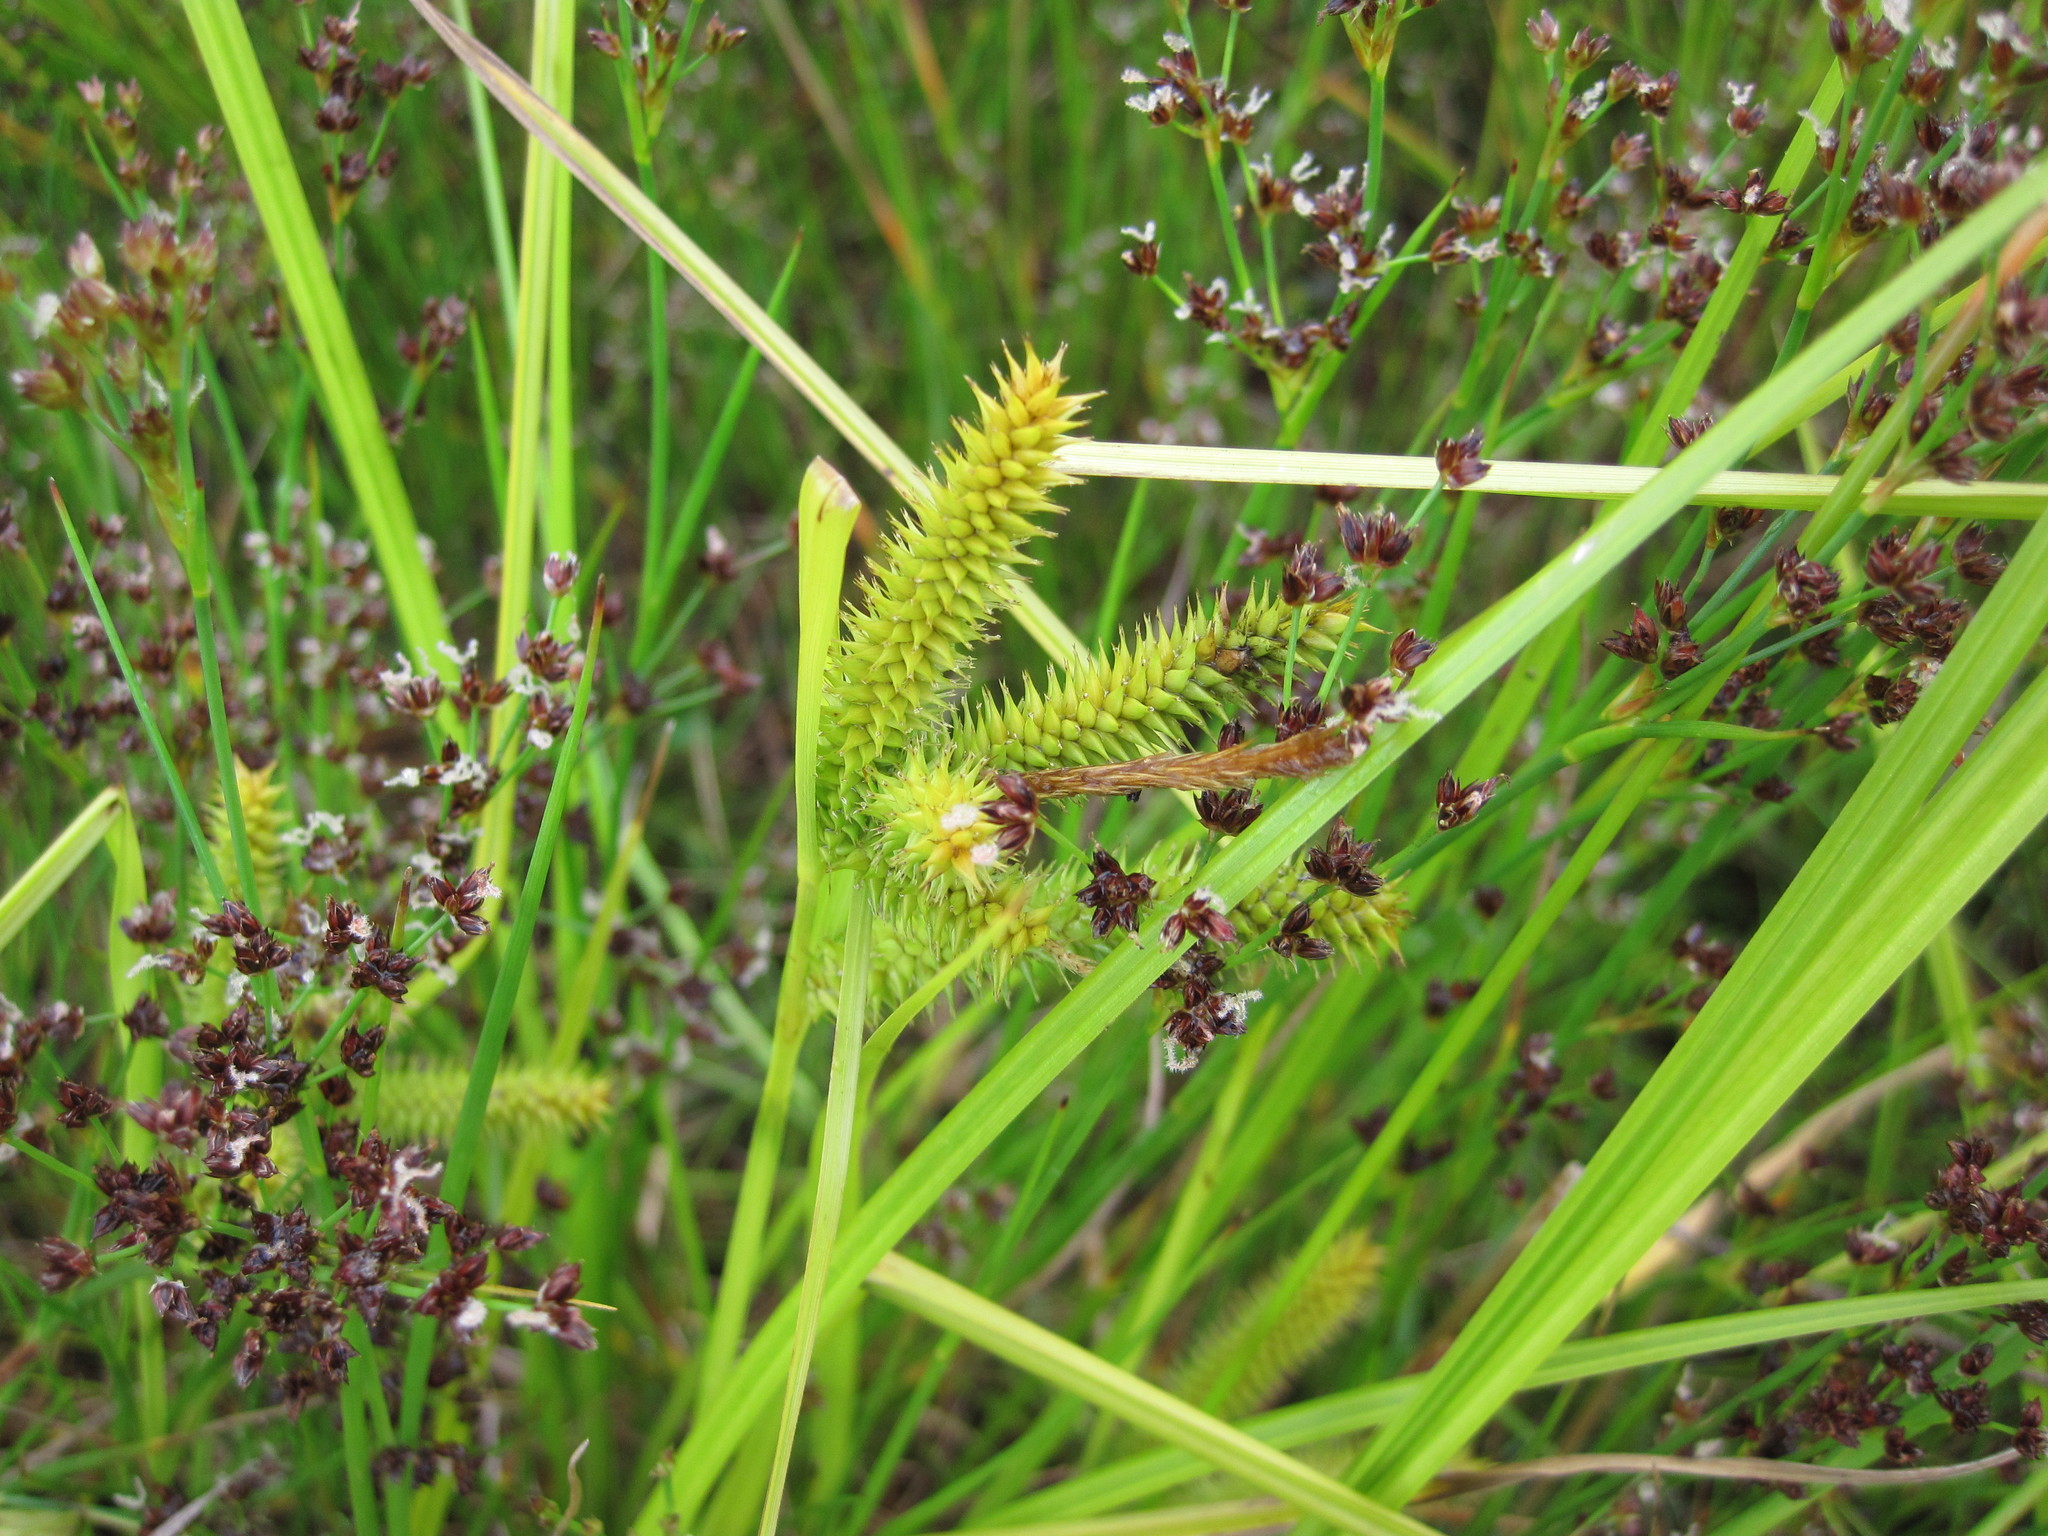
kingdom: Plantae
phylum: Tracheophyta
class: Liliopsida
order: Poales
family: Cyperaceae
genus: Carex
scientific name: Carex maorica
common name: Maori sedge
